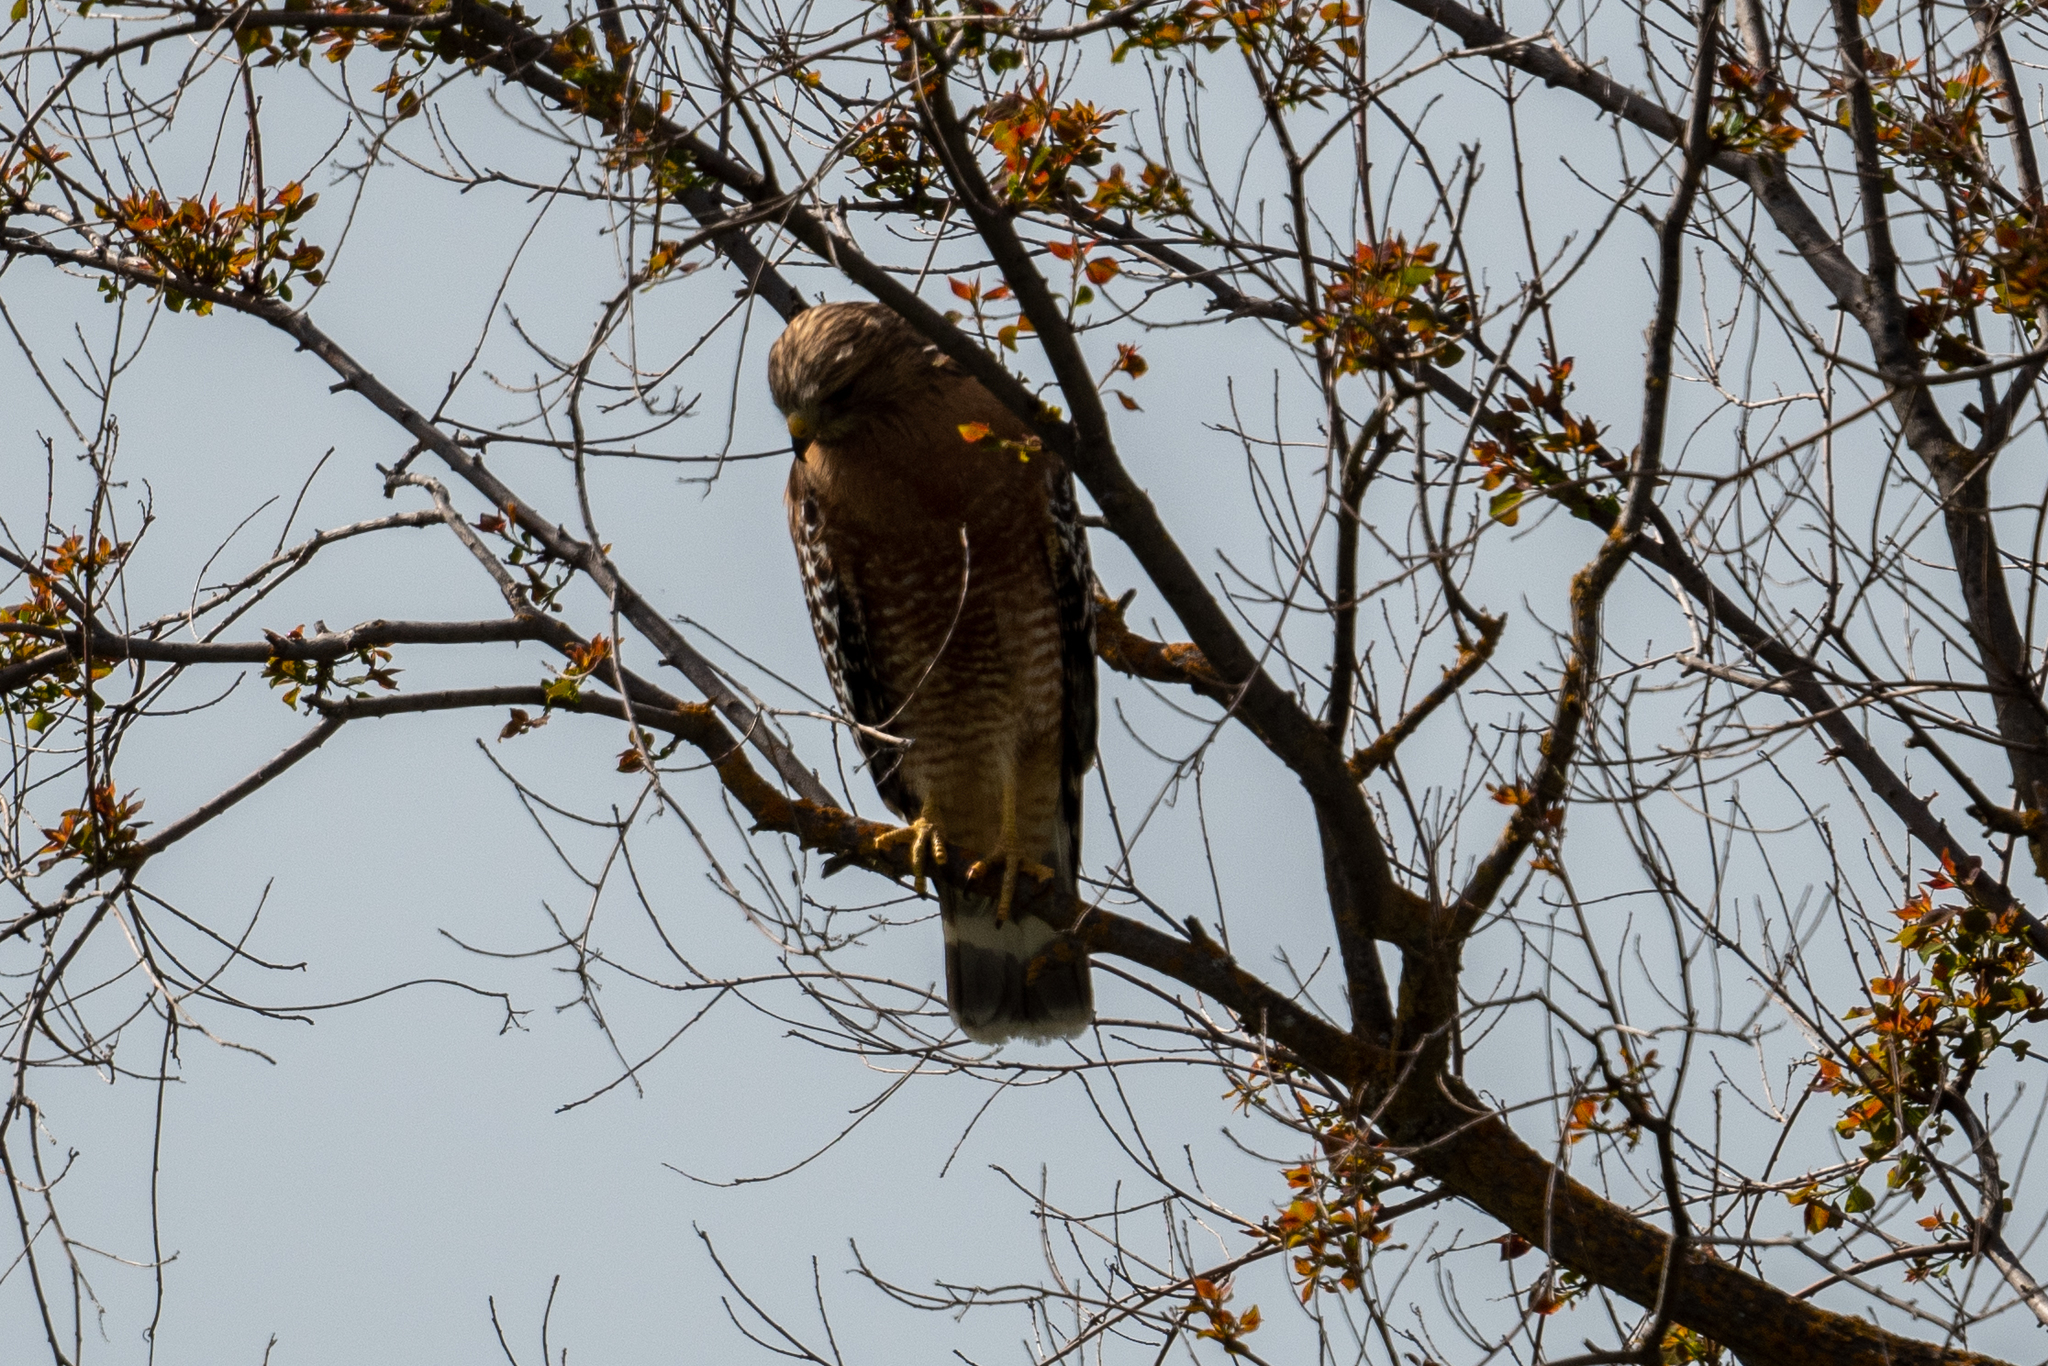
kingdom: Animalia
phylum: Chordata
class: Aves
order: Accipitriformes
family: Accipitridae
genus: Buteo
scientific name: Buteo lineatus
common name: Red-shouldered hawk
